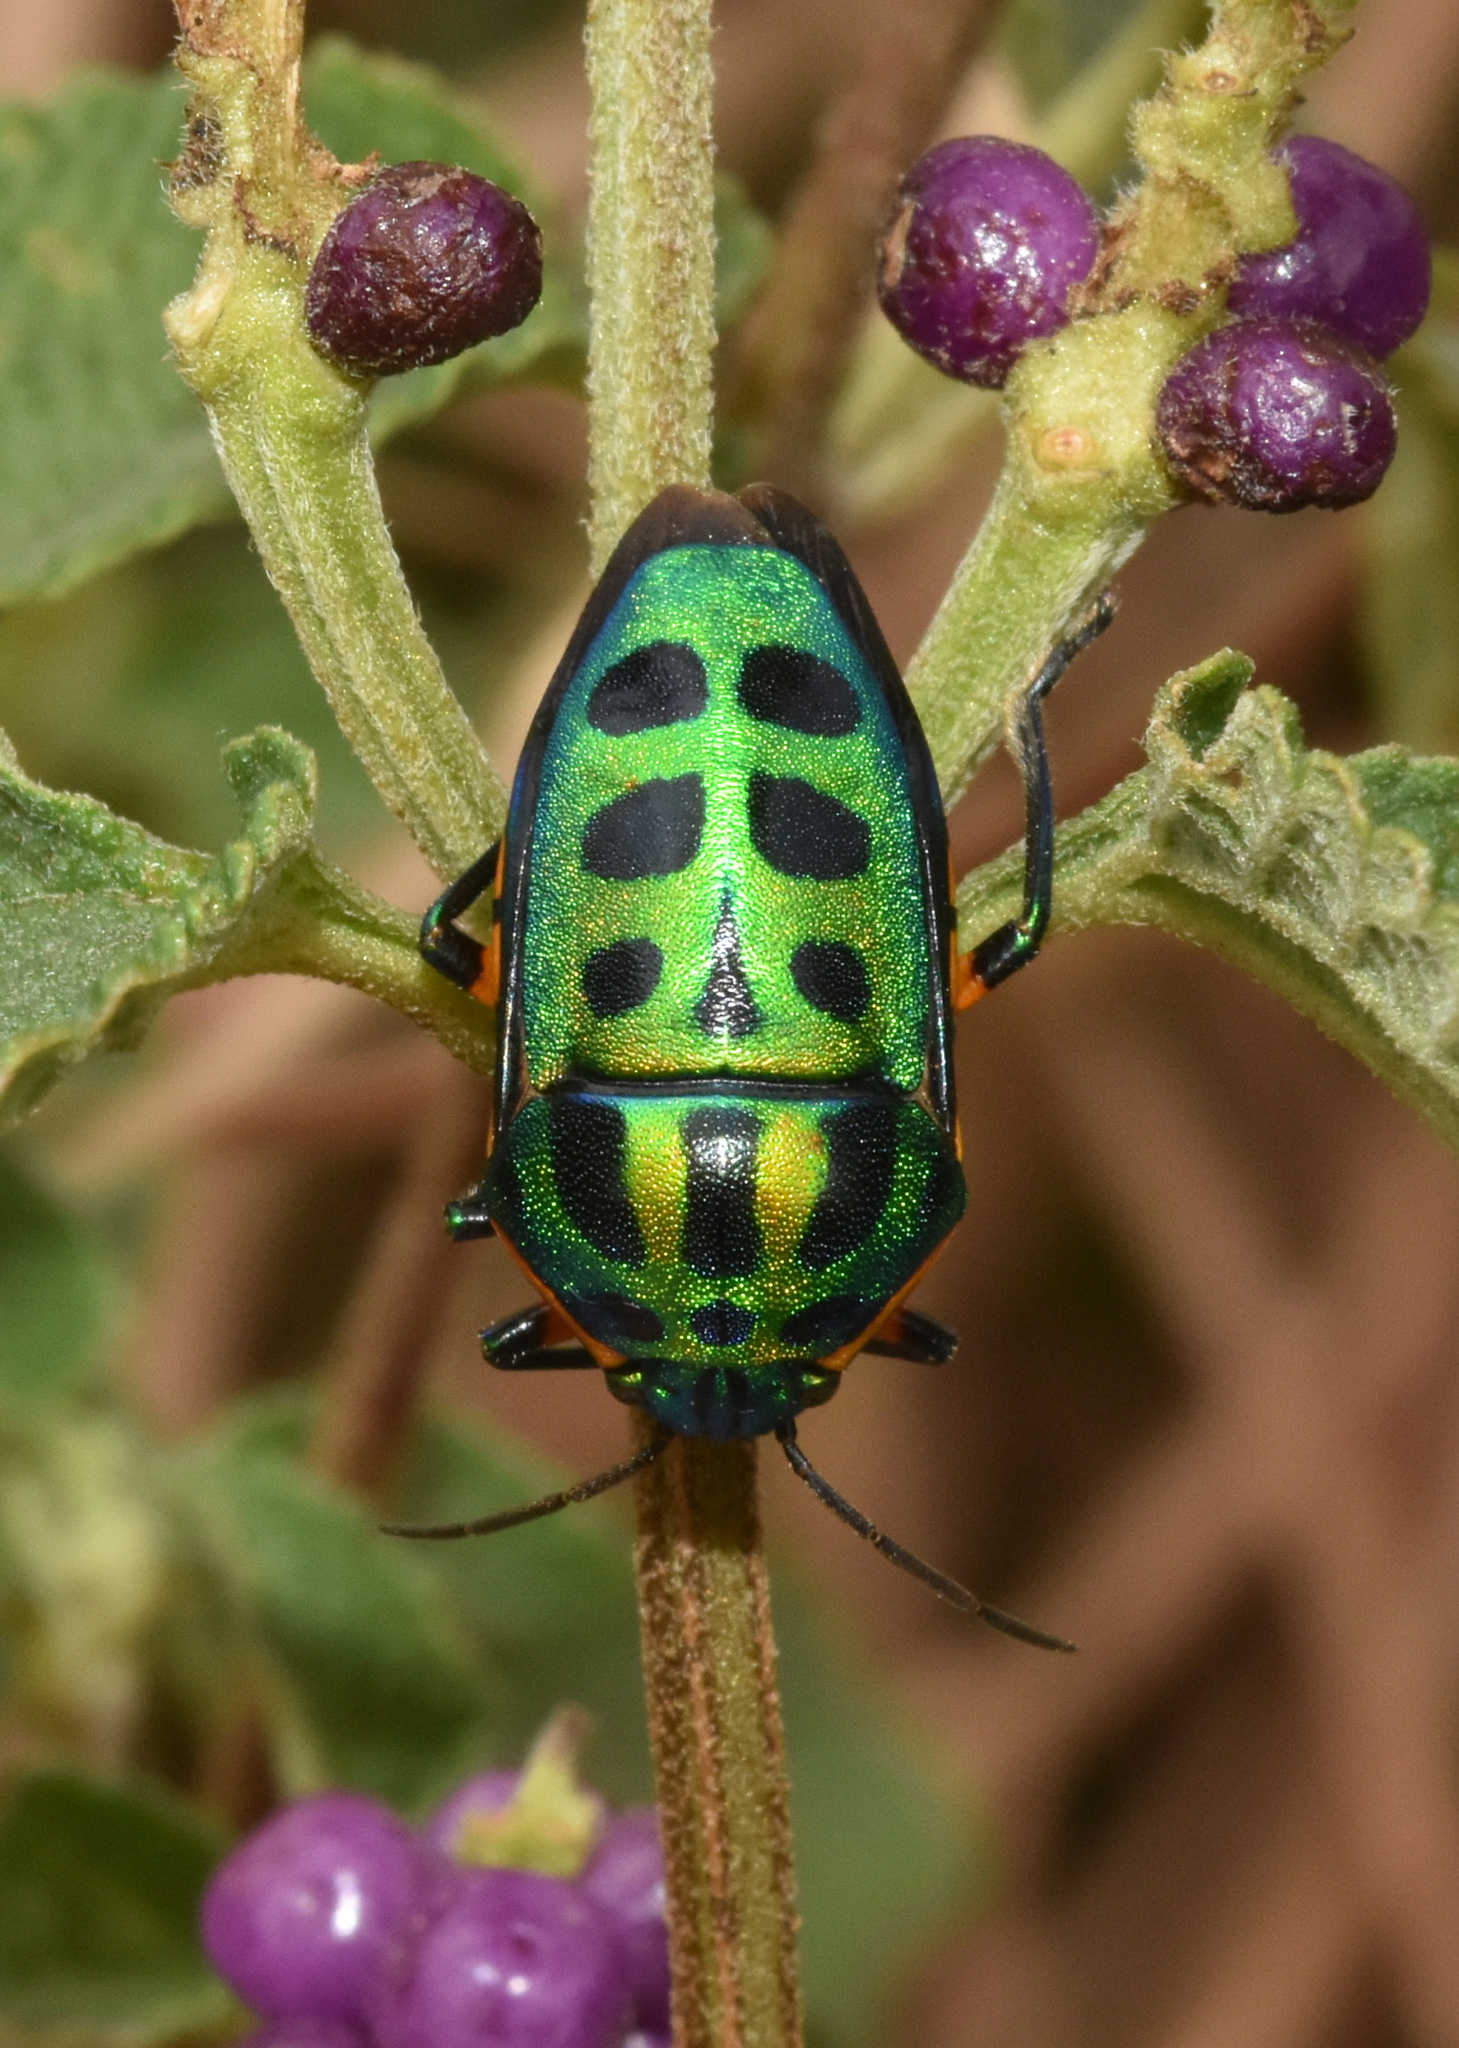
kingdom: Animalia
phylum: Arthropoda
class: Insecta
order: Hemiptera
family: Scutelleridae
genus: Calidea
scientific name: Calidea
